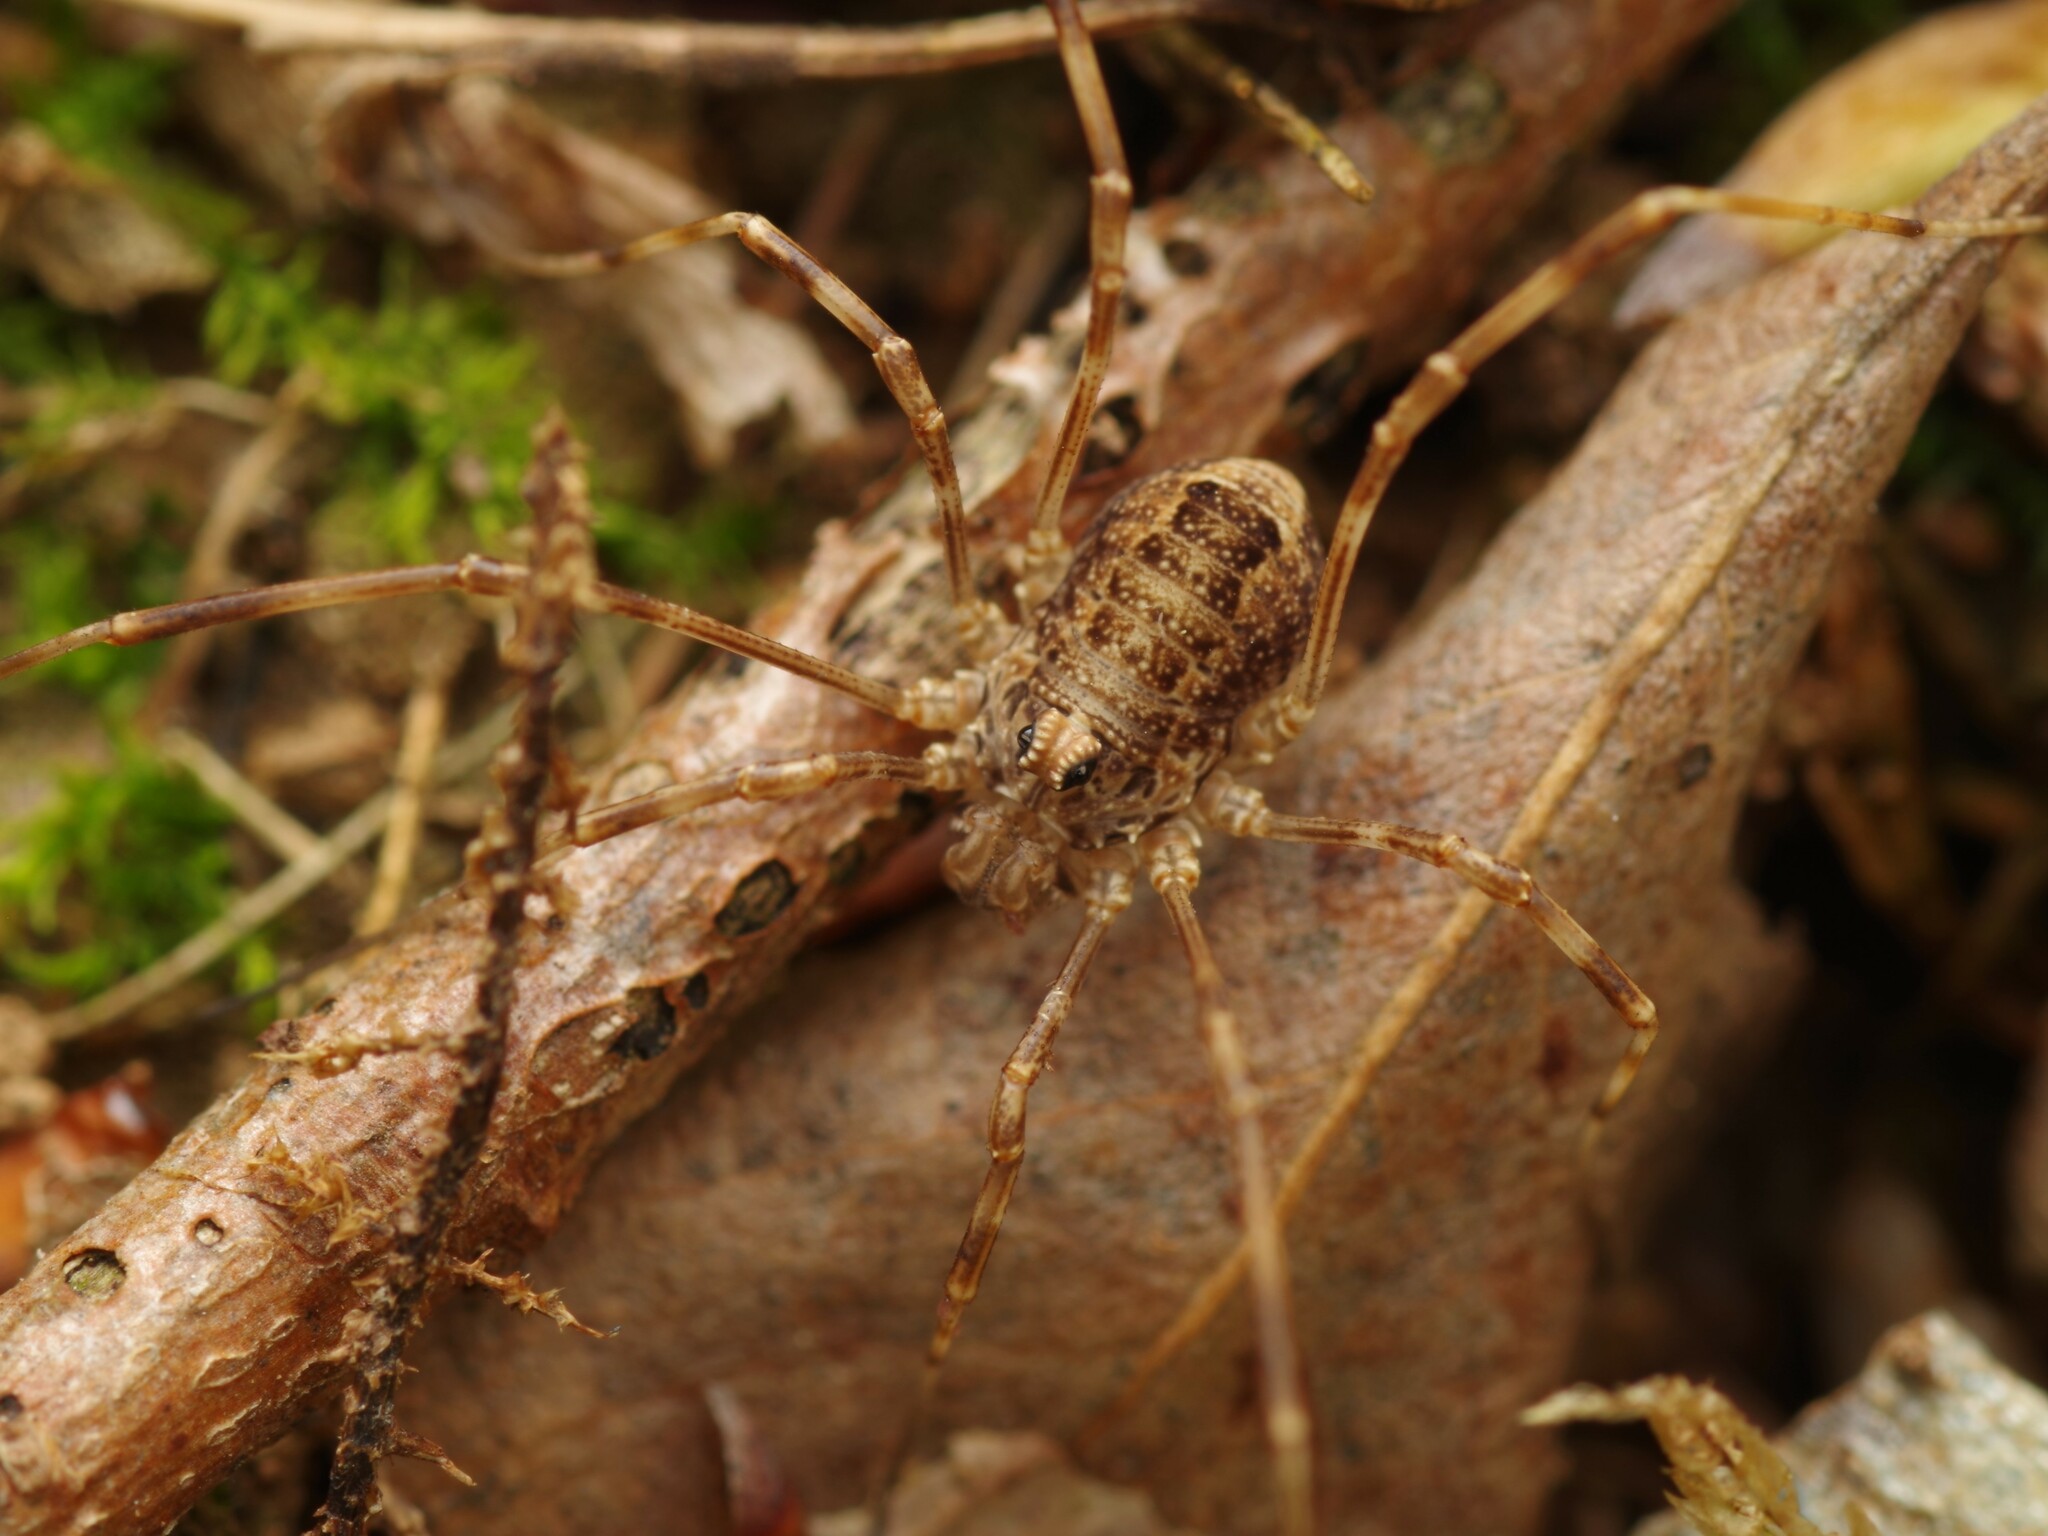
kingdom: Animalia
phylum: Arthropoda
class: Arachnida
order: Opiliones
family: Phalangiidae
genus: Rilaena
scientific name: Rilaena triangularis
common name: Spring harvestman
